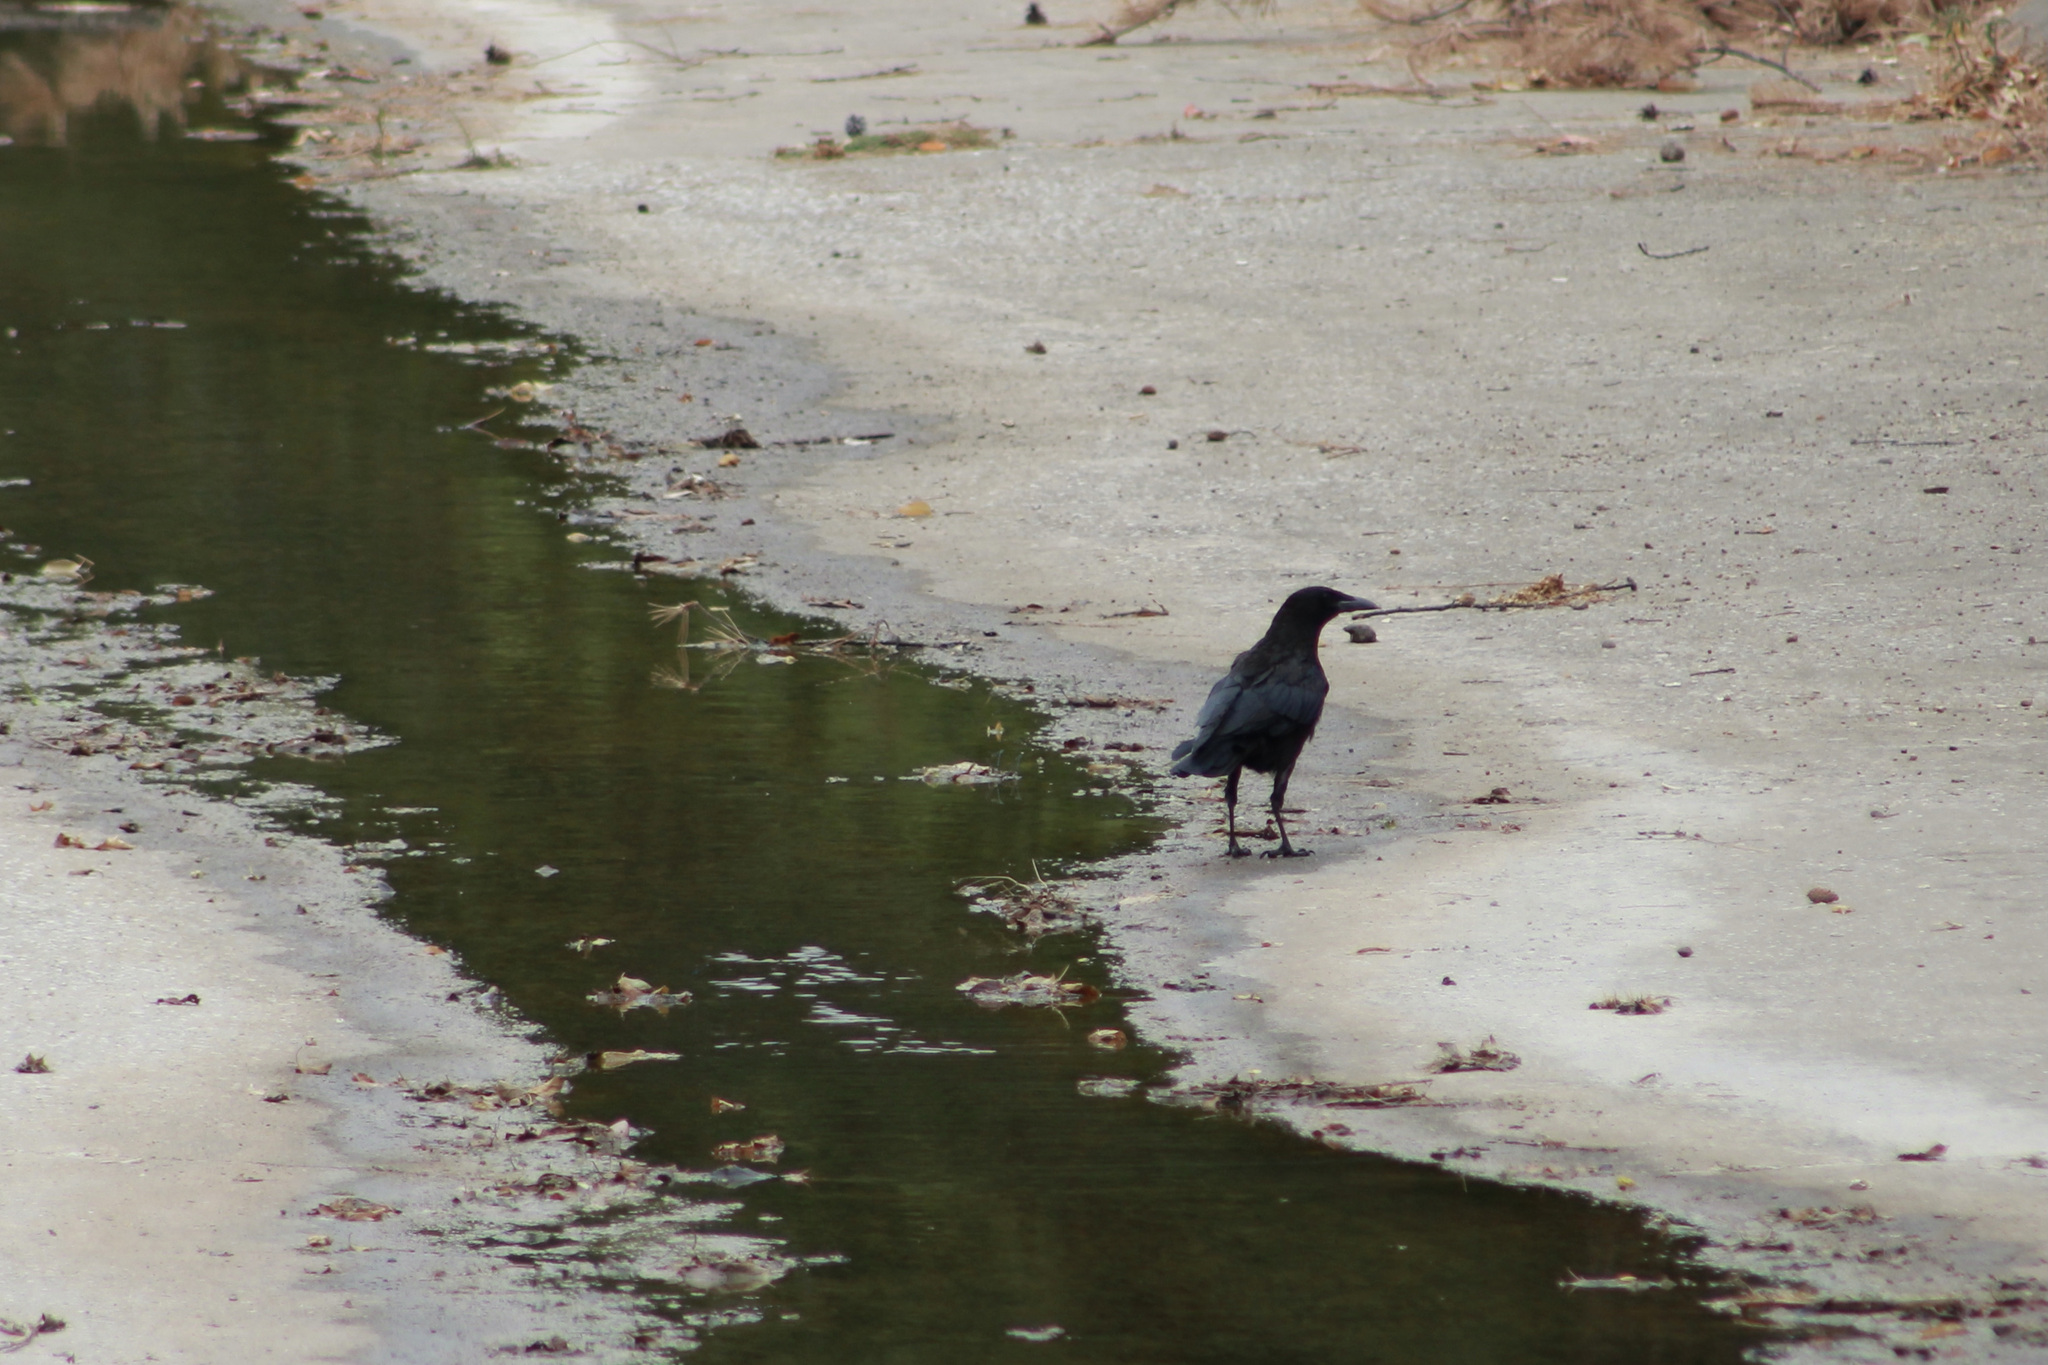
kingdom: Animalia
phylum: Chordata
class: Aves
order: Passeriformes
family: Corvidae
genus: Corvus
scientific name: Corvus brachyrhynchos
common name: American crow
